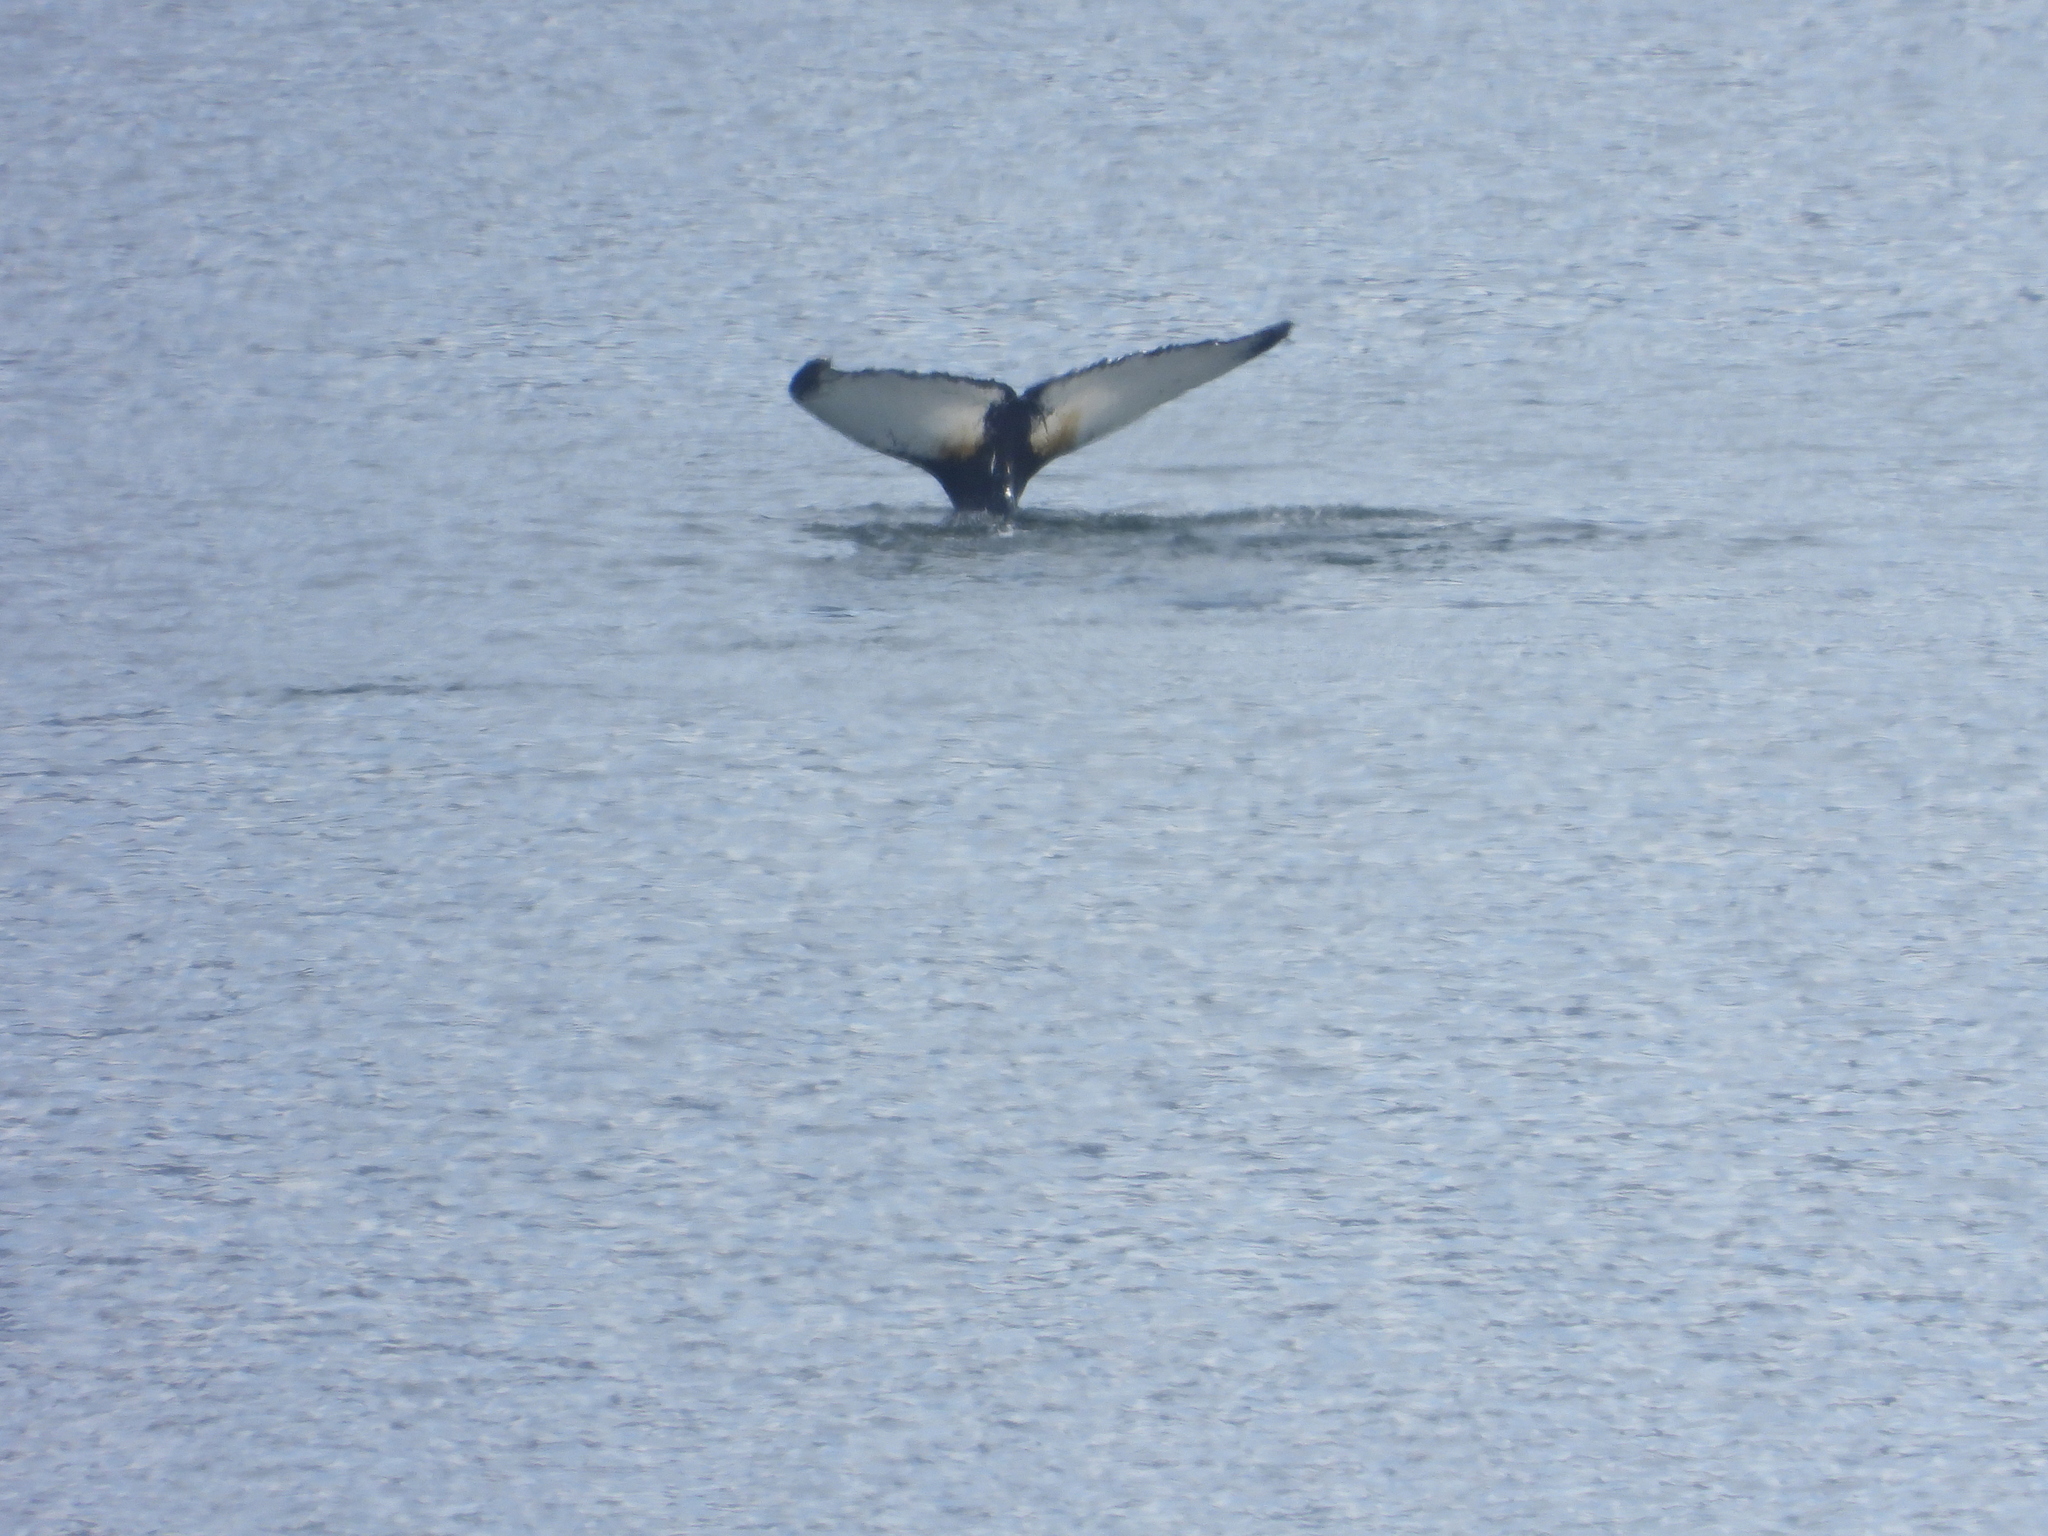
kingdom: Animalia
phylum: Chordata
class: Mammalia
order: Cetacea
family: Balaenopteridae
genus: Megaptera
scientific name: Megaptera novaeangliae
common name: Humpback whale
